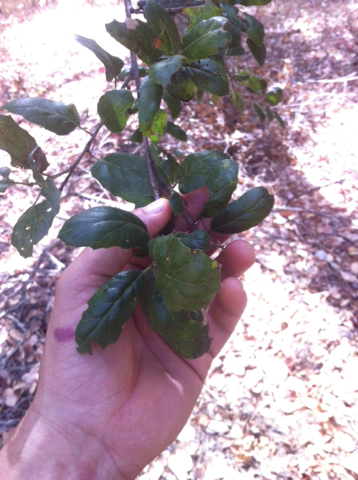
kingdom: Plantae
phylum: Tracheophyta
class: Magnoliopsida
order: Fagales
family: Fagaceae
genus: Quercus
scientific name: Quercus agrifolia
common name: California live oak
